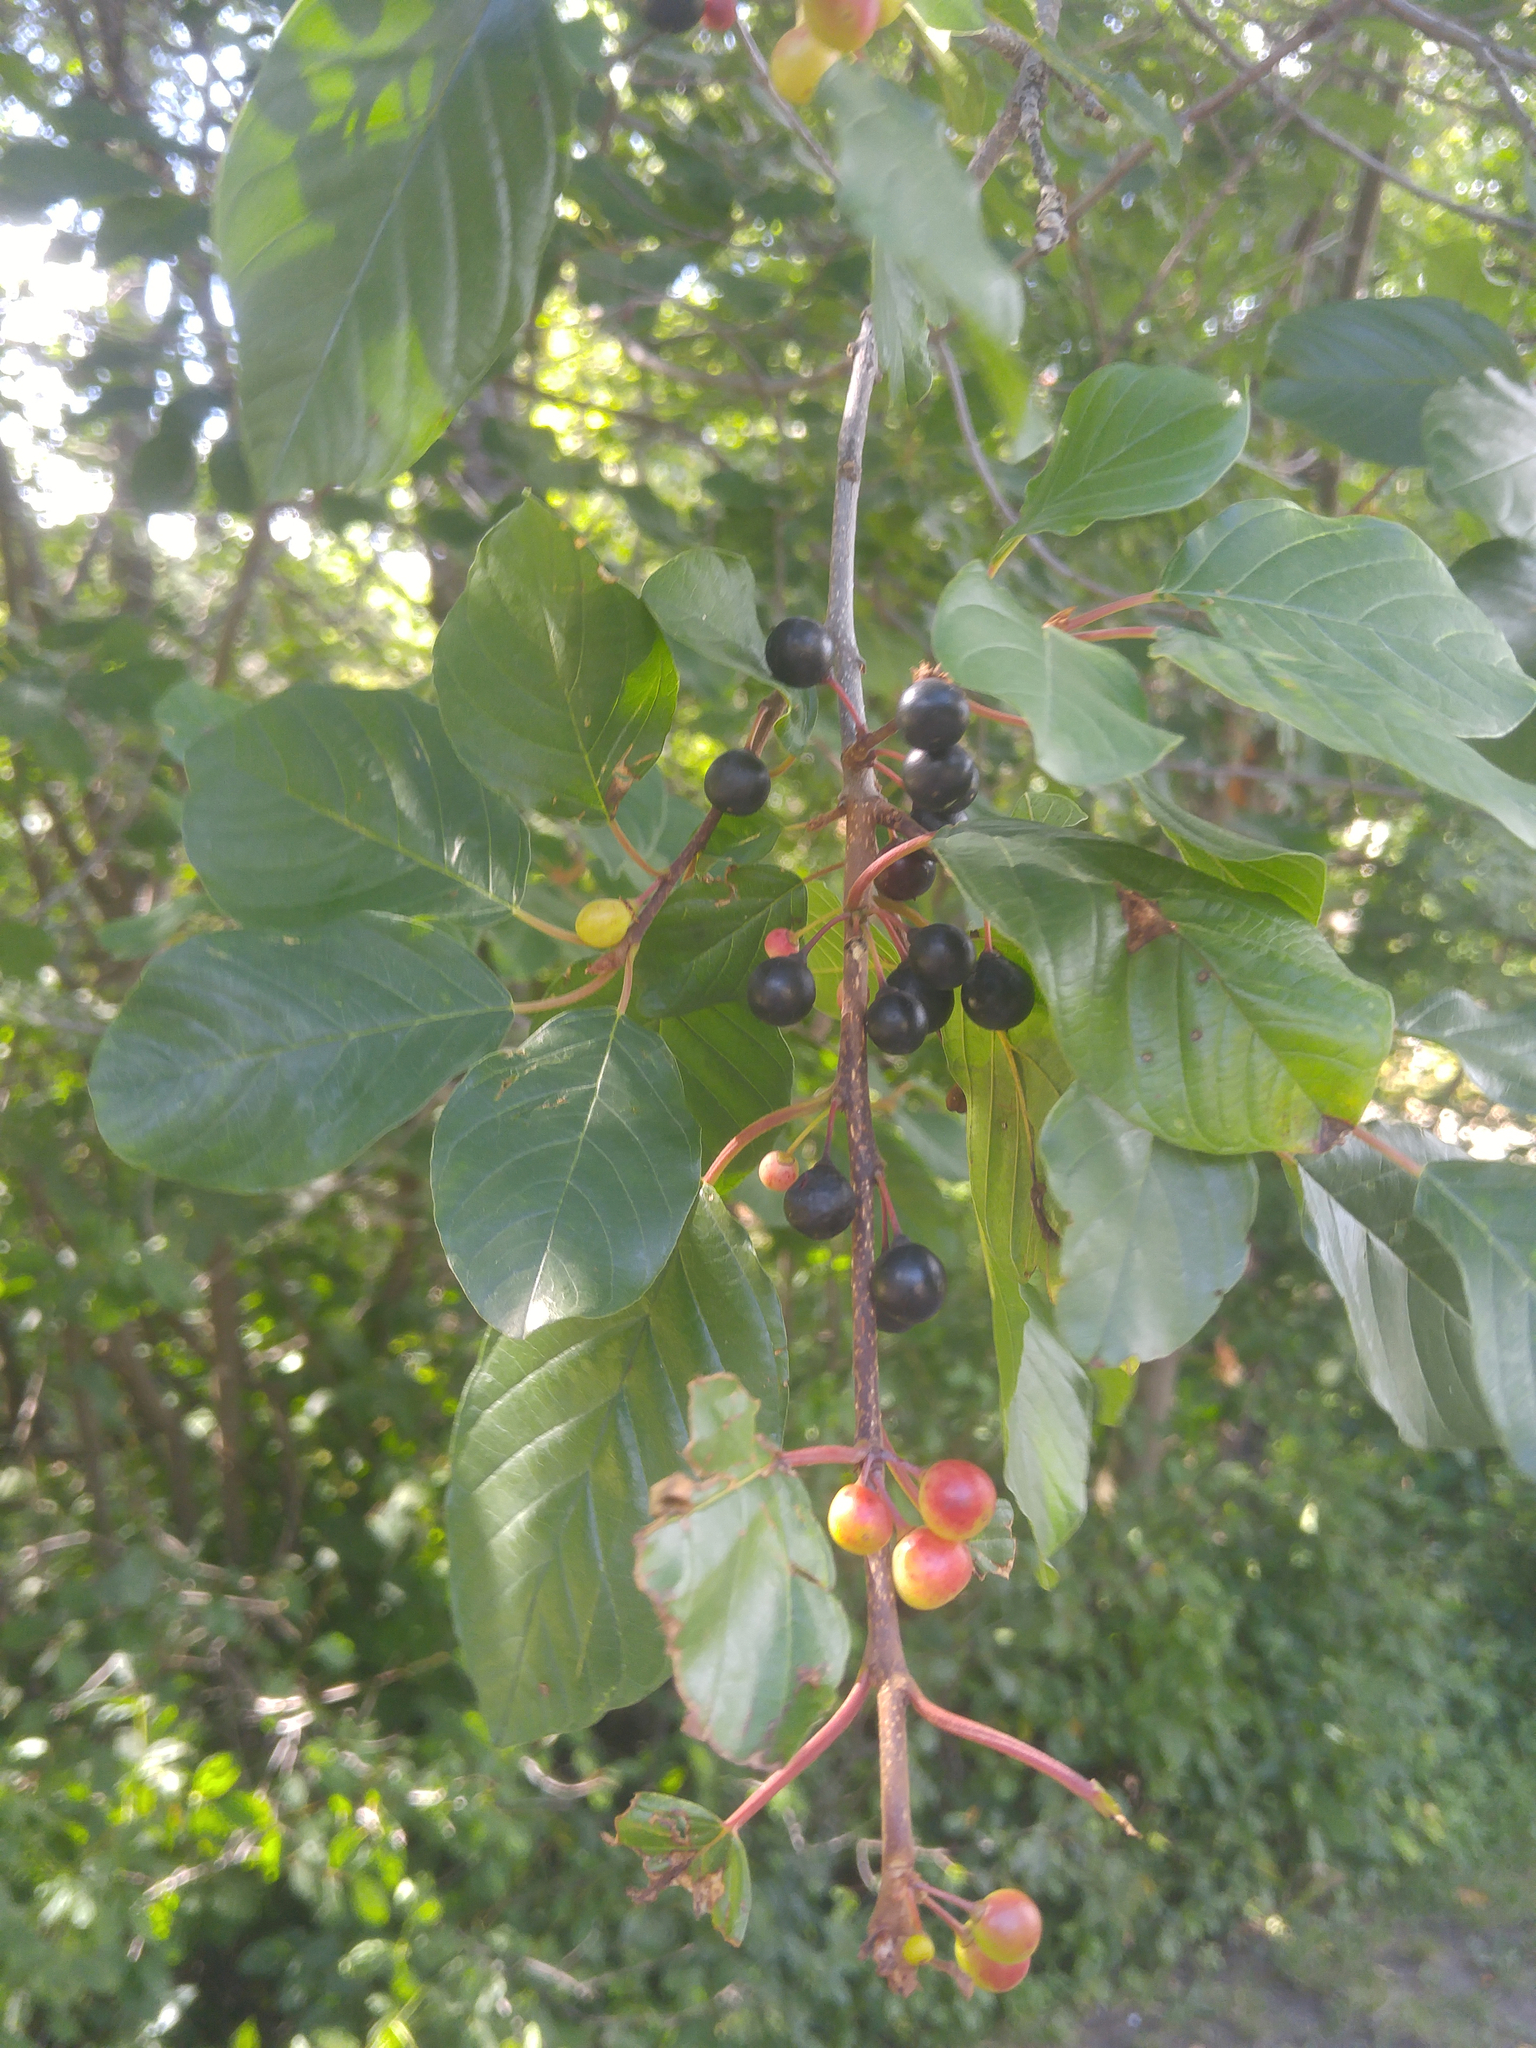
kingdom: Plantae
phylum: Tracheophyta
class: Magnoliopsida
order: Rosales
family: Rhamnaceae
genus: Frangula
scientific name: Frangula alnus
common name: Alder buckthorn
